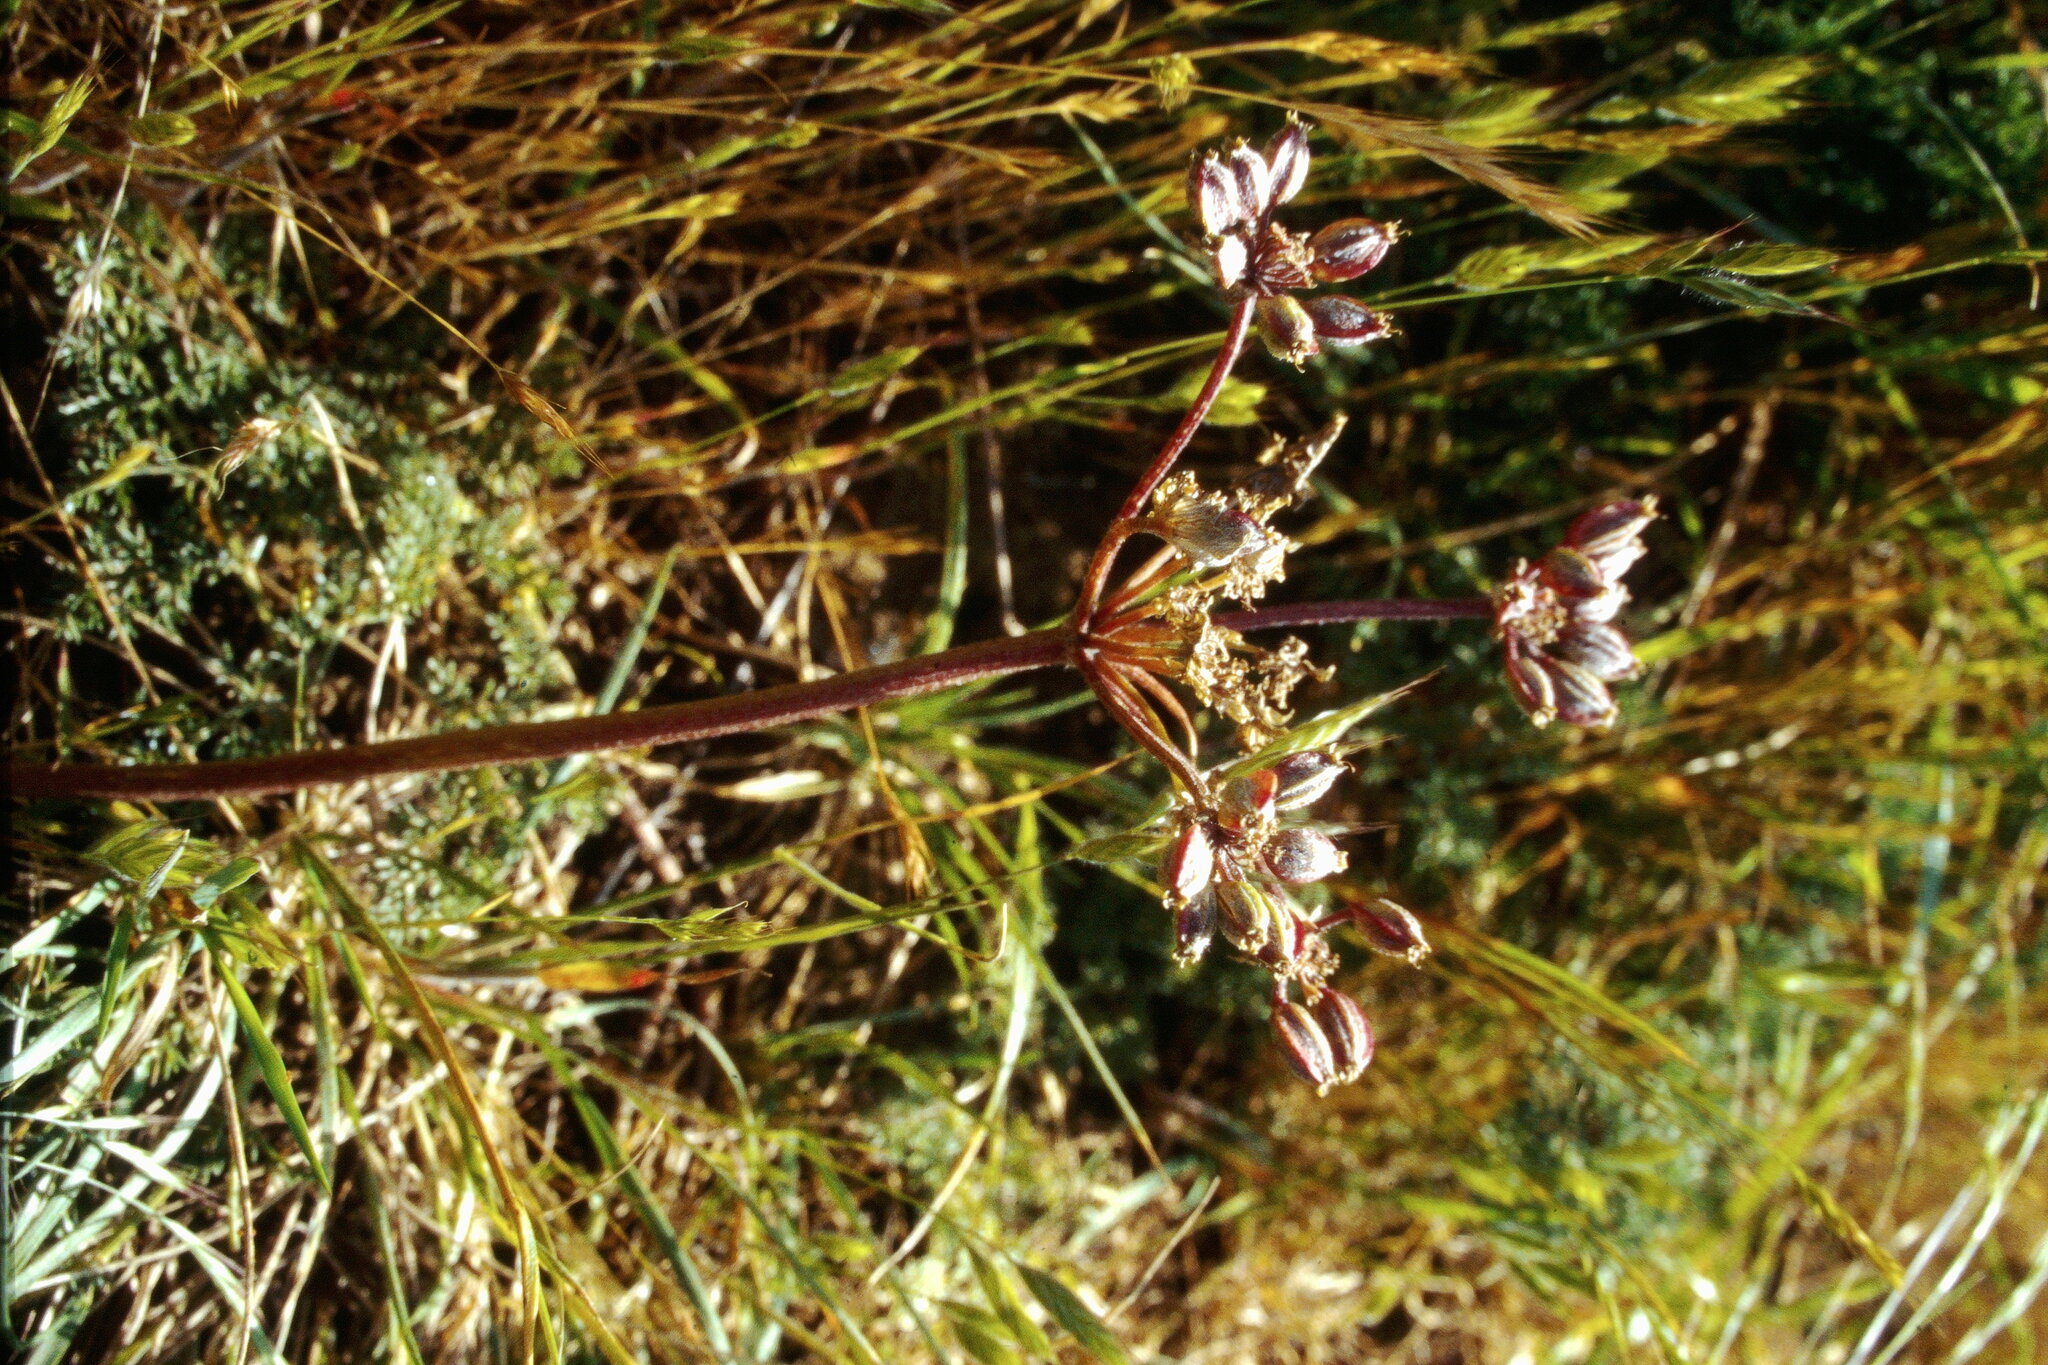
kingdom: Plantae
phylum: Tracheophyta
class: Magnoliopsida
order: Apiales
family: Apiaceae
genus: Lomatium
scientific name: Lomatium dasycarpum
